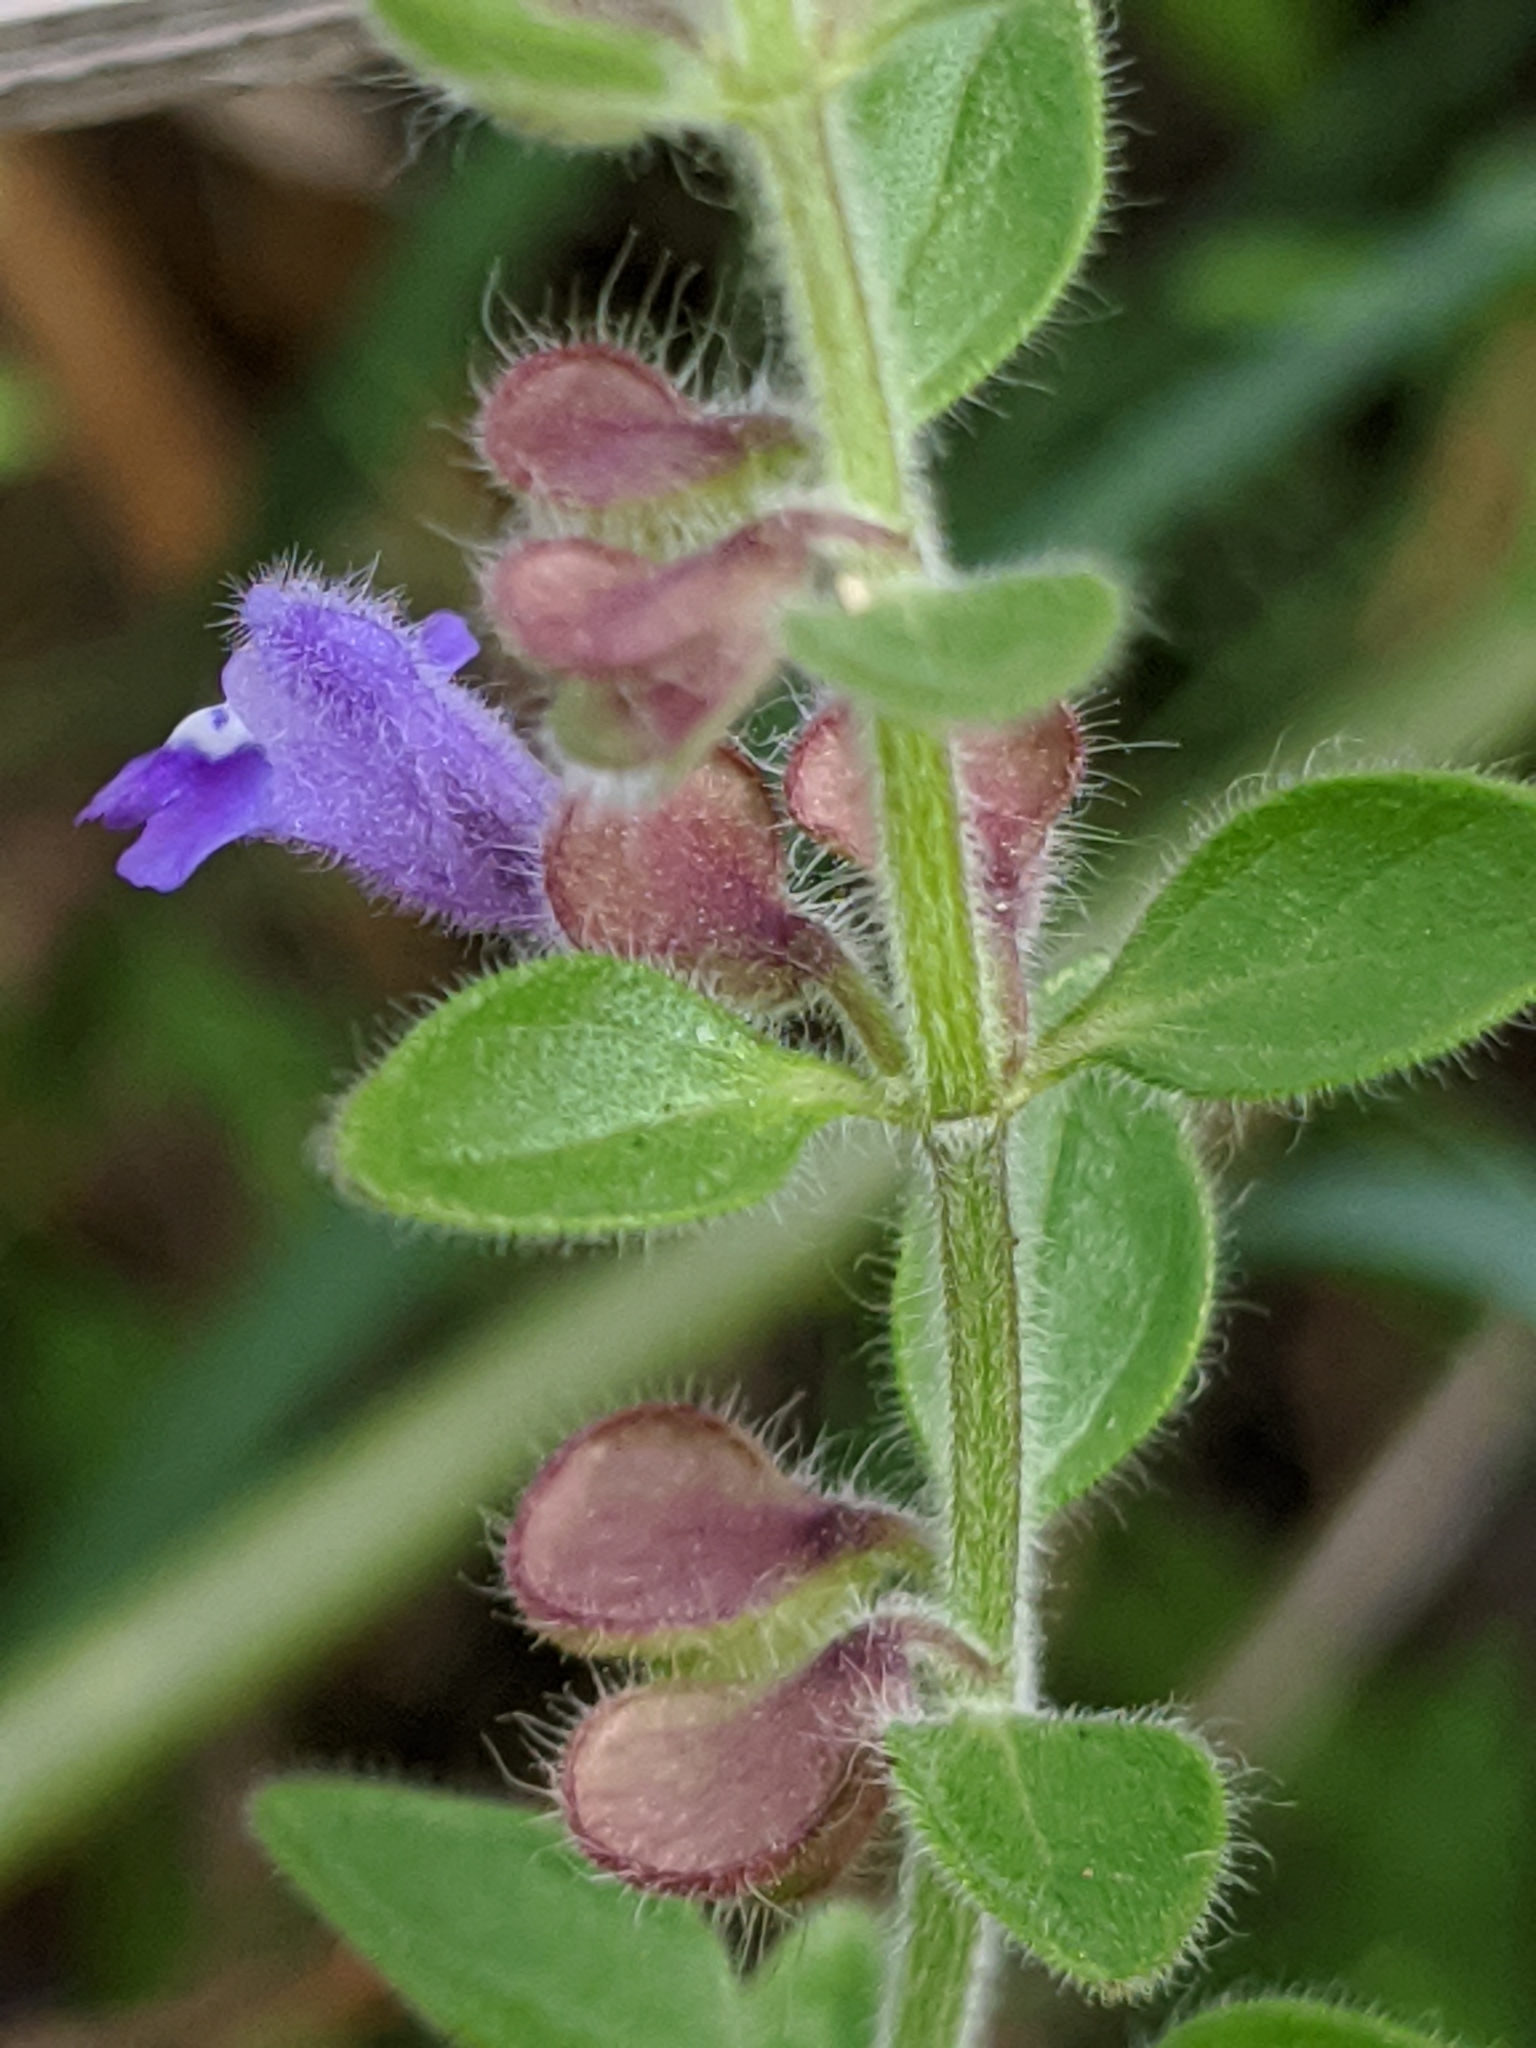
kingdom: Plantae
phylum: Tracheophyta
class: Magnoliopsida
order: Lamiales
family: Lamiaceae
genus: Scutellaria
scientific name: Scutellaria drummondii
